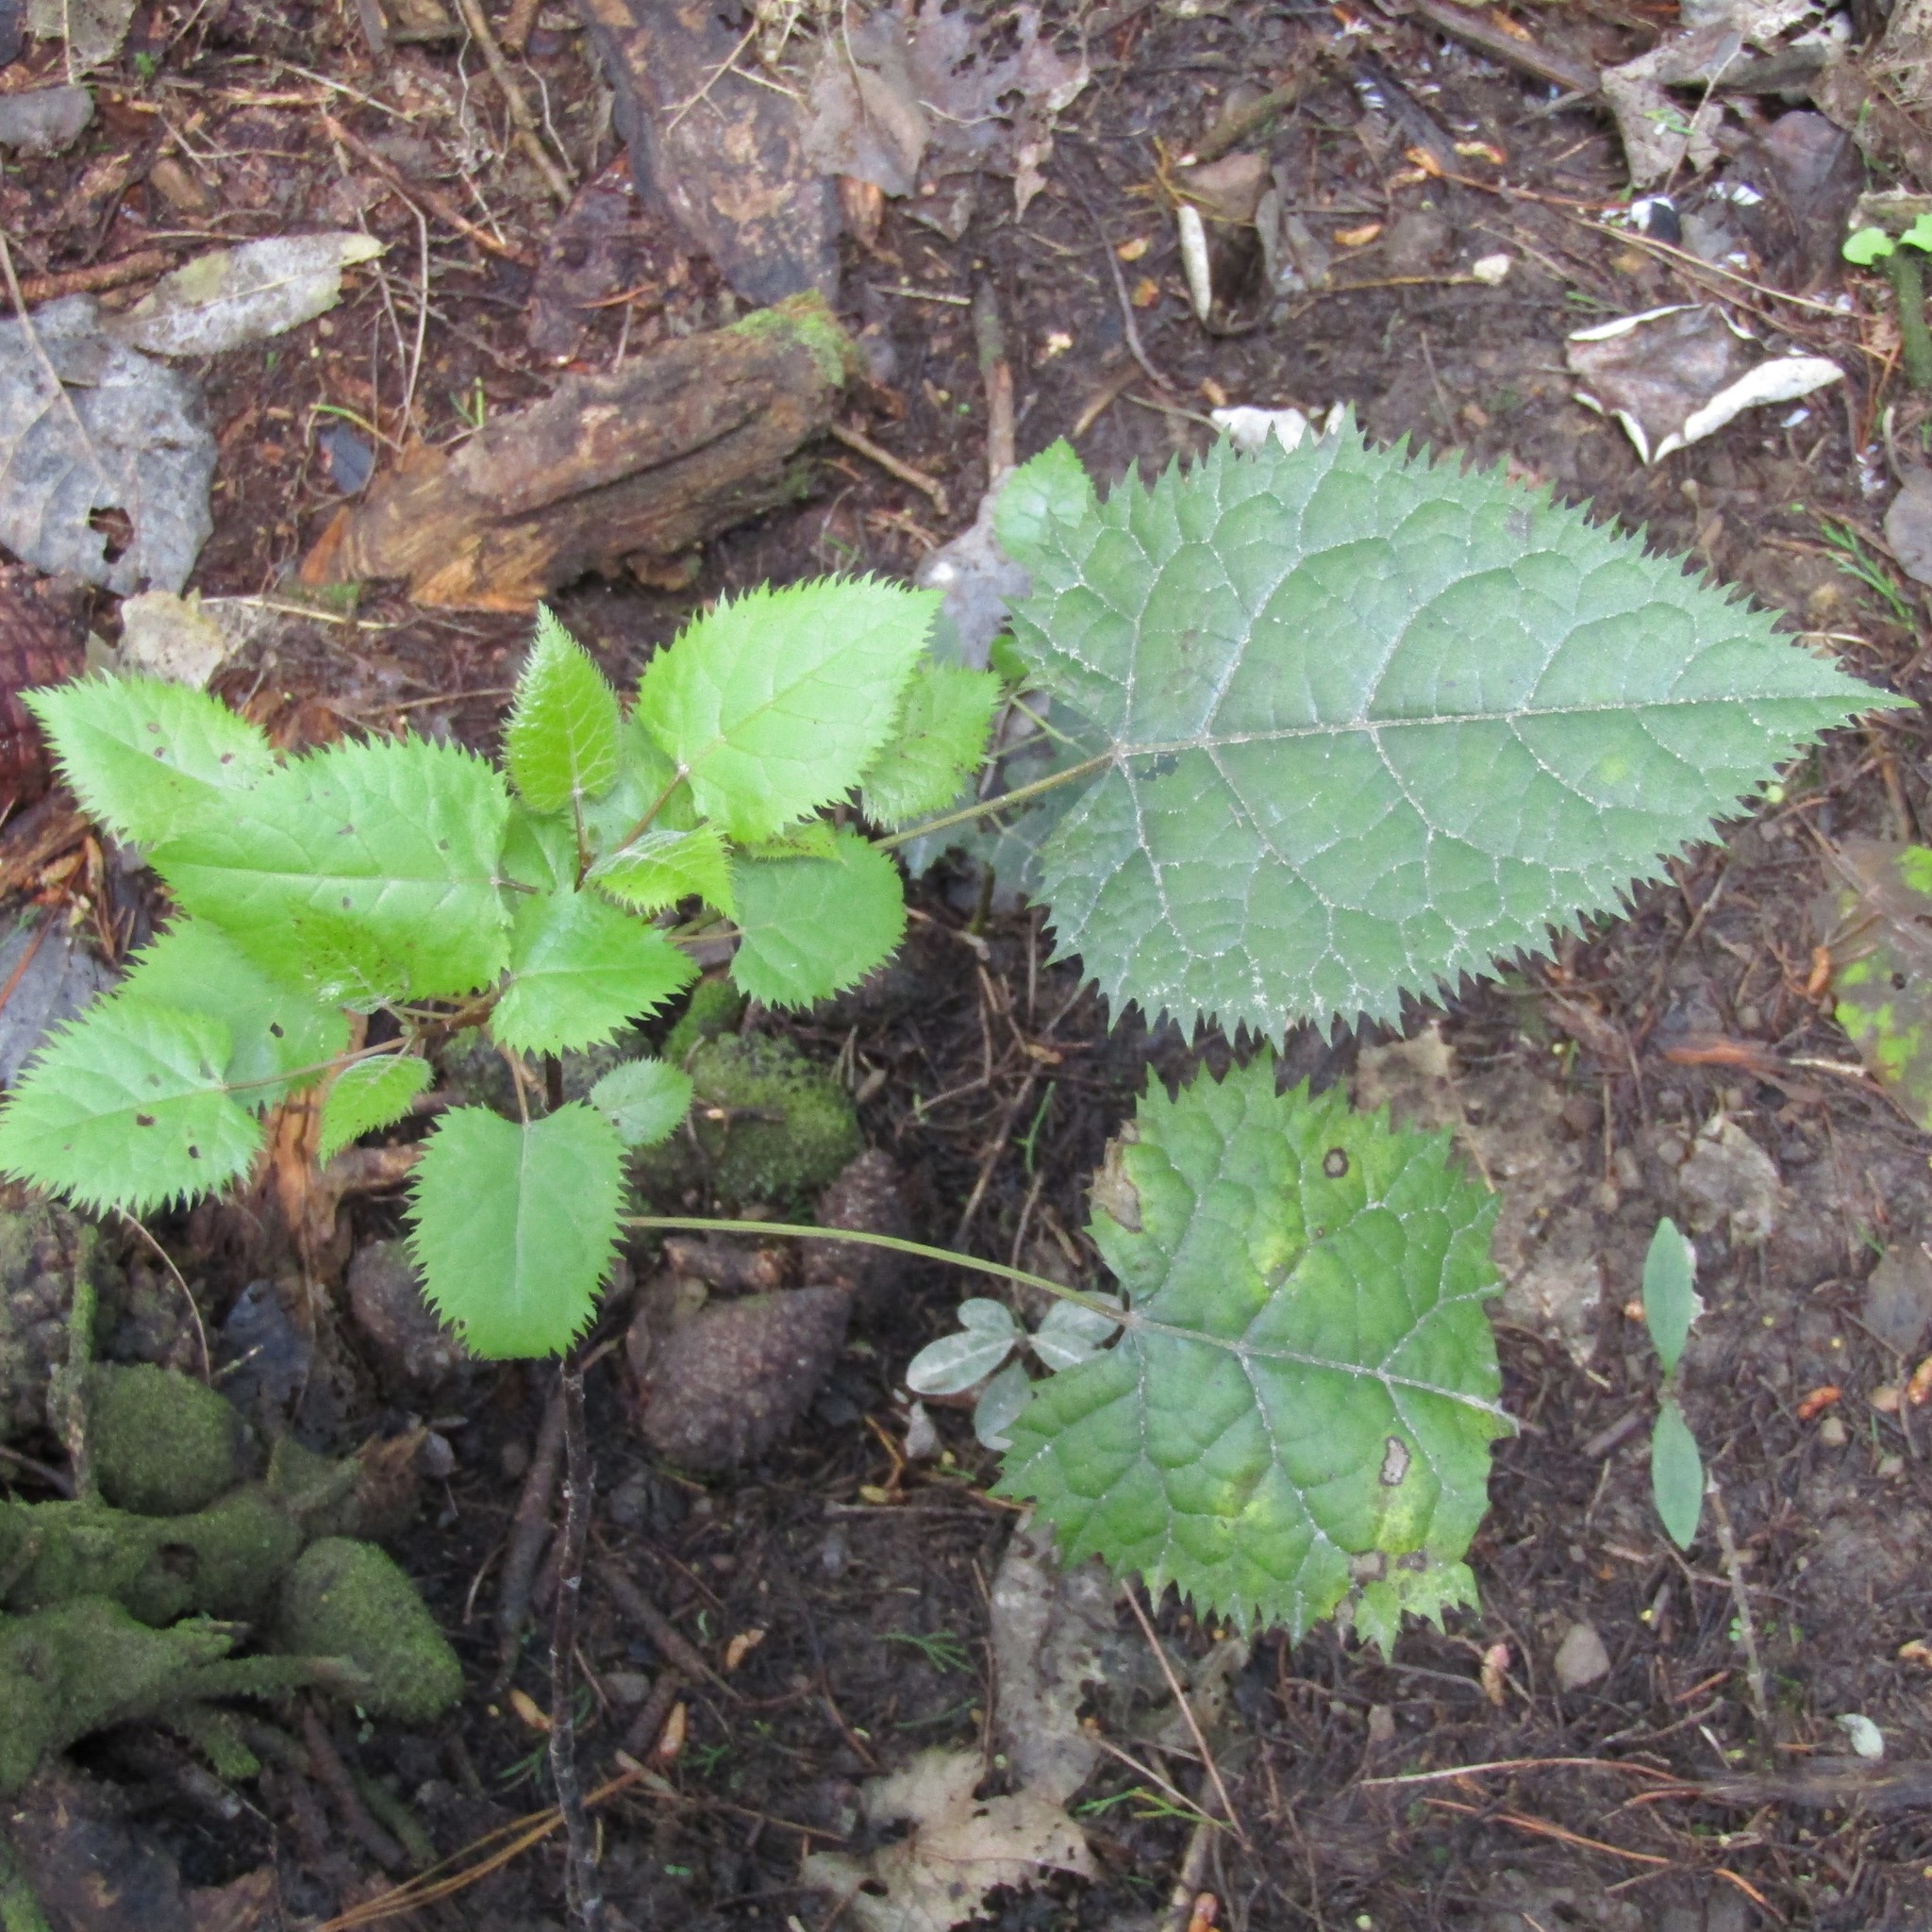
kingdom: Plantae
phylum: Tracheophyta
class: Magnoliopsida
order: Oxalidales
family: Elaeocarpaceae
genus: Aristotelia
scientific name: Aristotelia serrata
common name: New zealand wineberry
